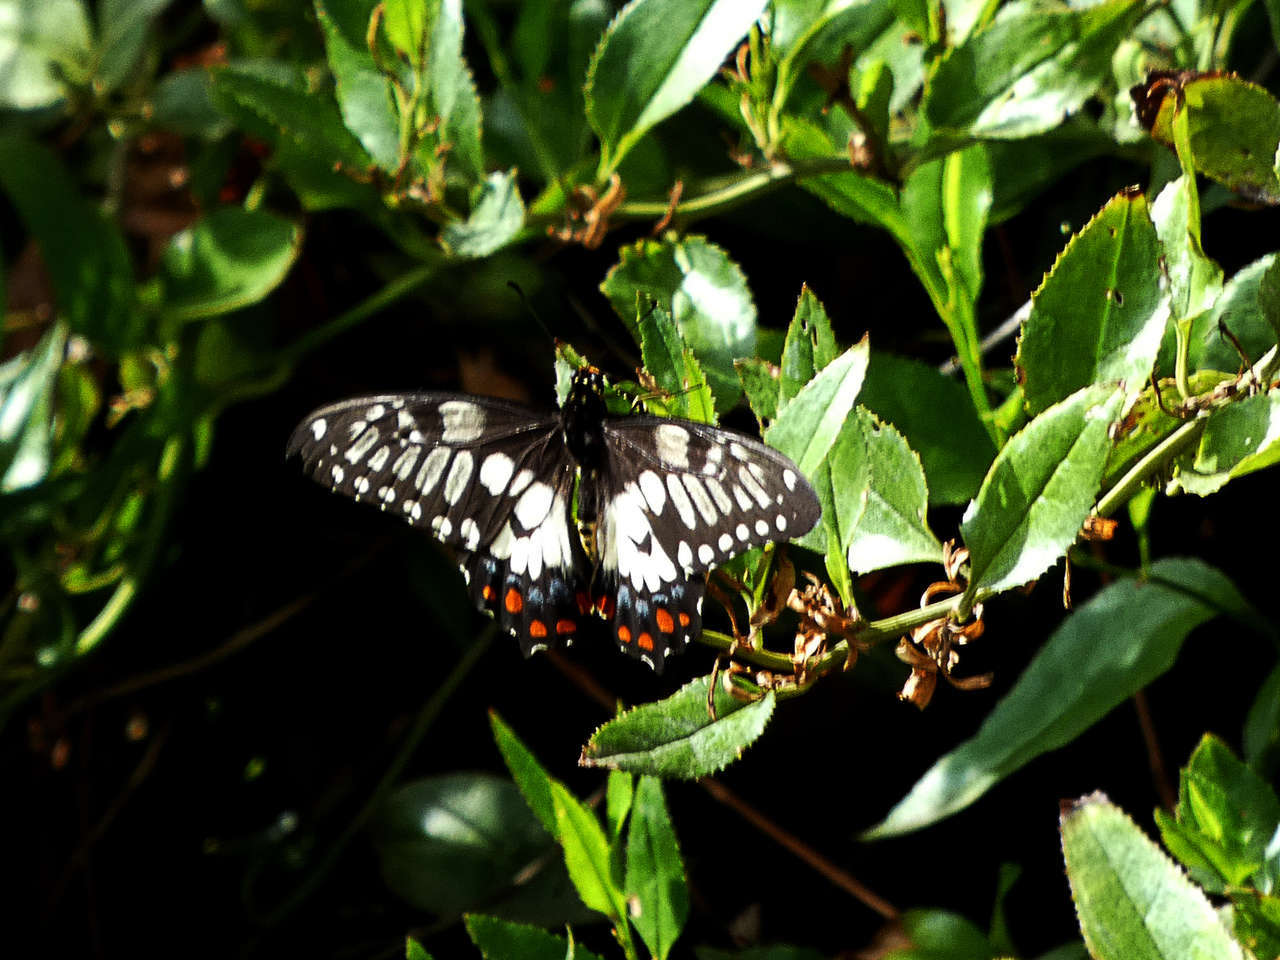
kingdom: Animalia
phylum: Arthropoda
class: Insecta
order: Lepidoptera
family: Papilionidae
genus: Papilio
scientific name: Papilio anactus
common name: Dingy swallowtail
